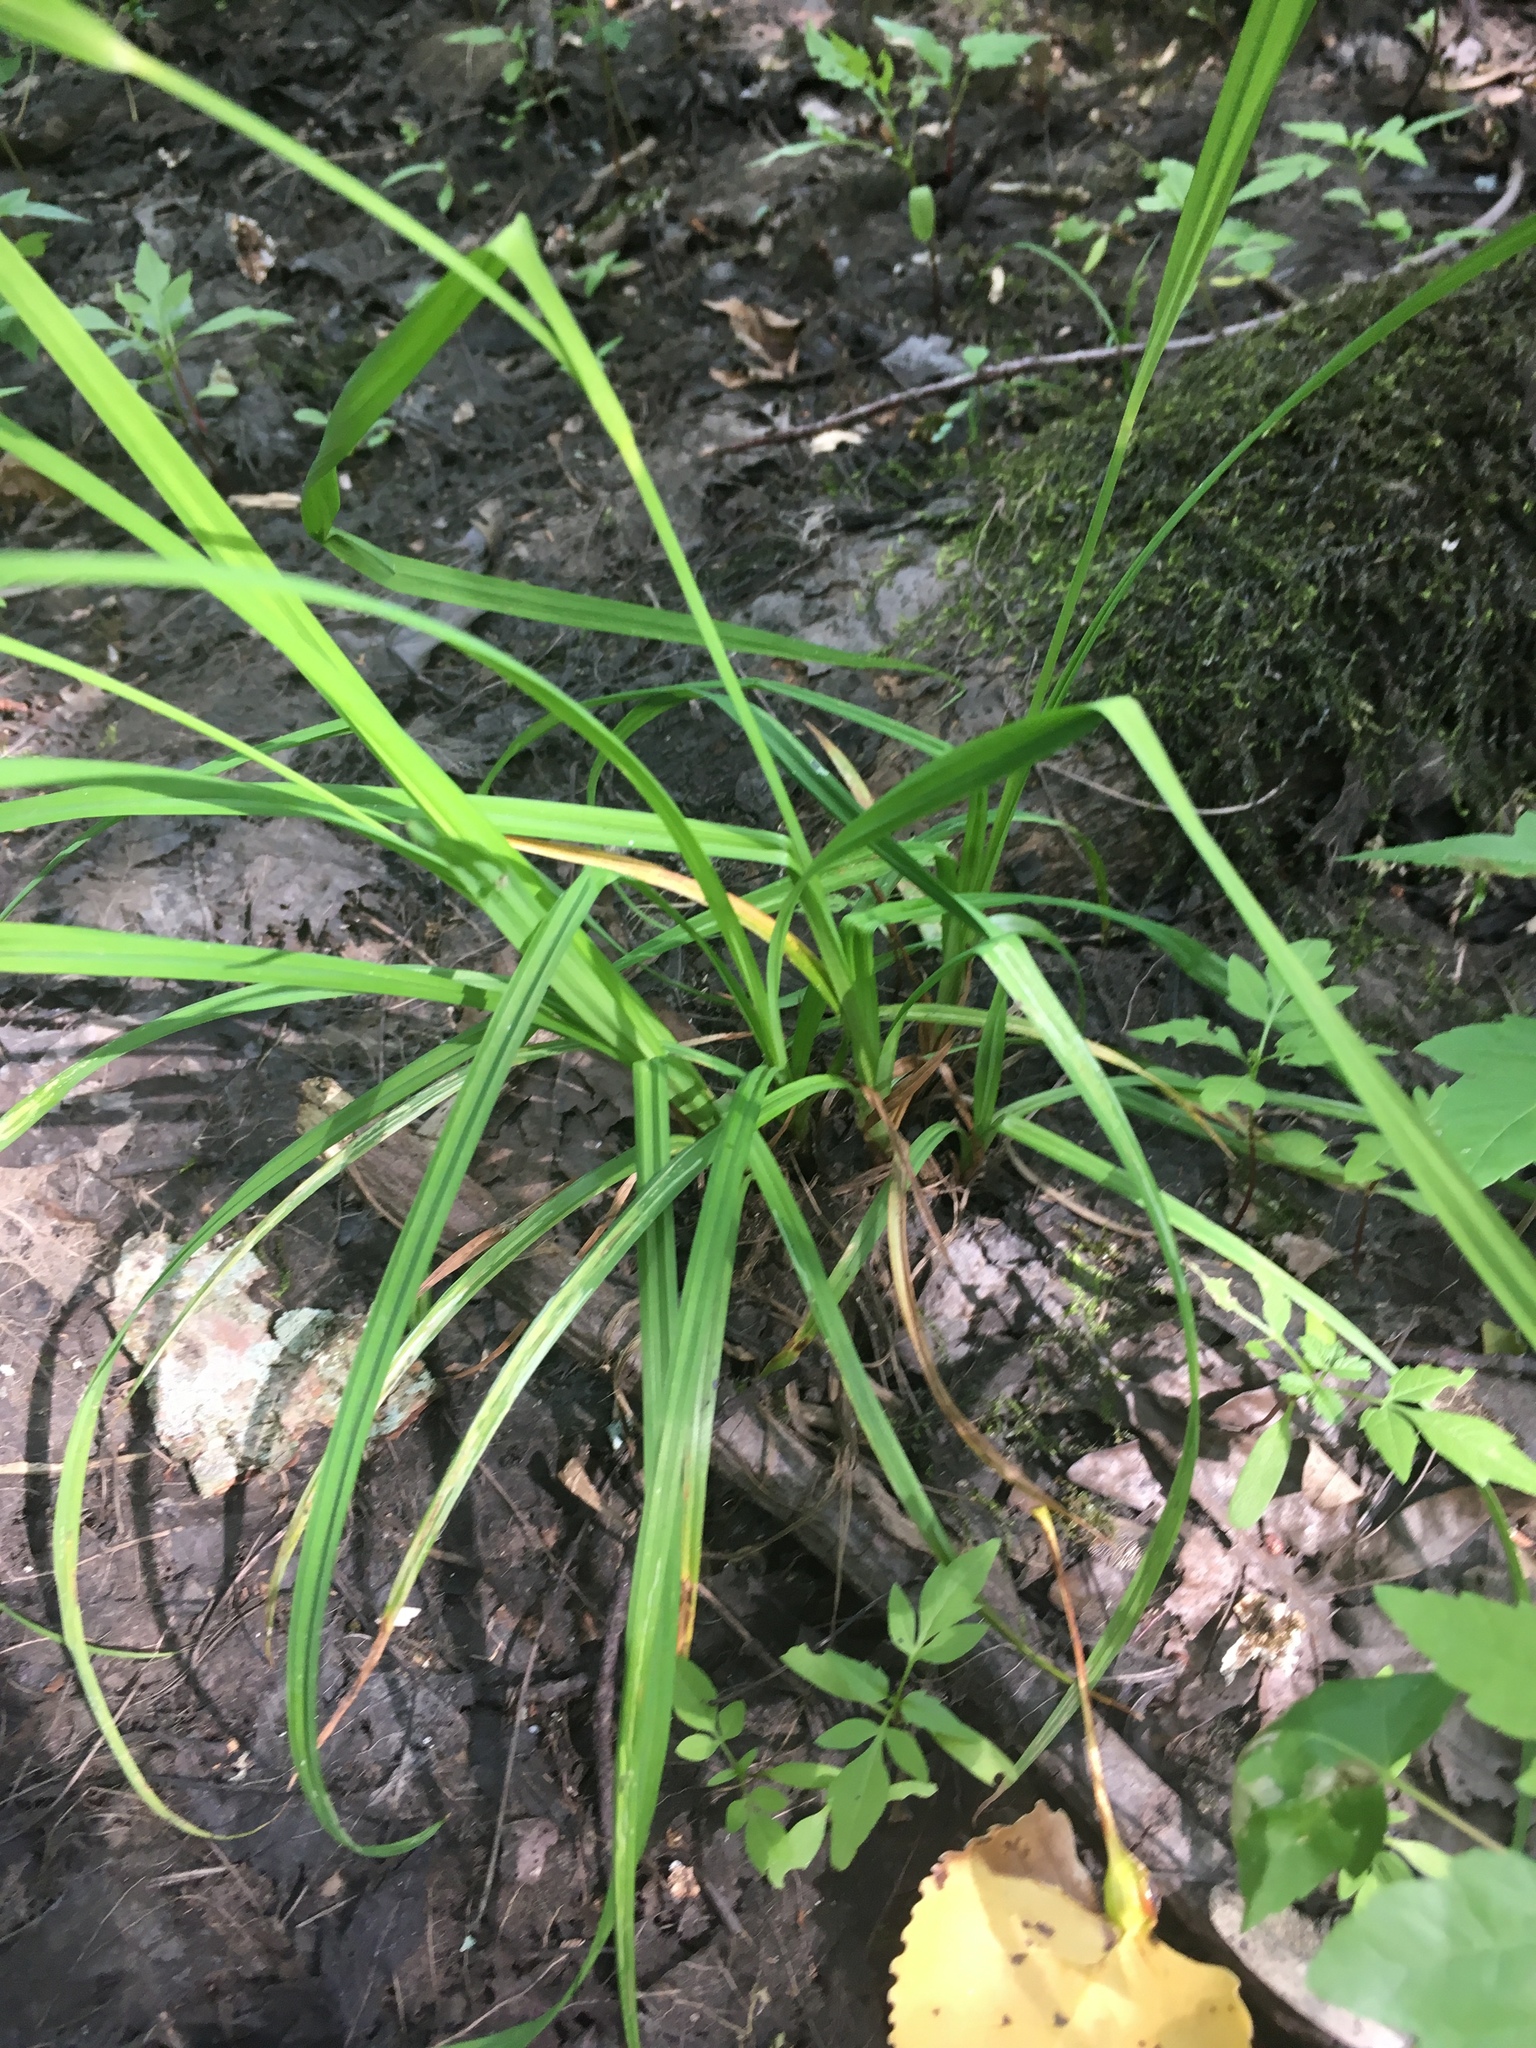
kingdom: Plantae
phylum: Tracheophyta
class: Liliopsida
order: Poales
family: Cyperaceae
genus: Carex
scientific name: Carex typhina
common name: Cattail sedge
